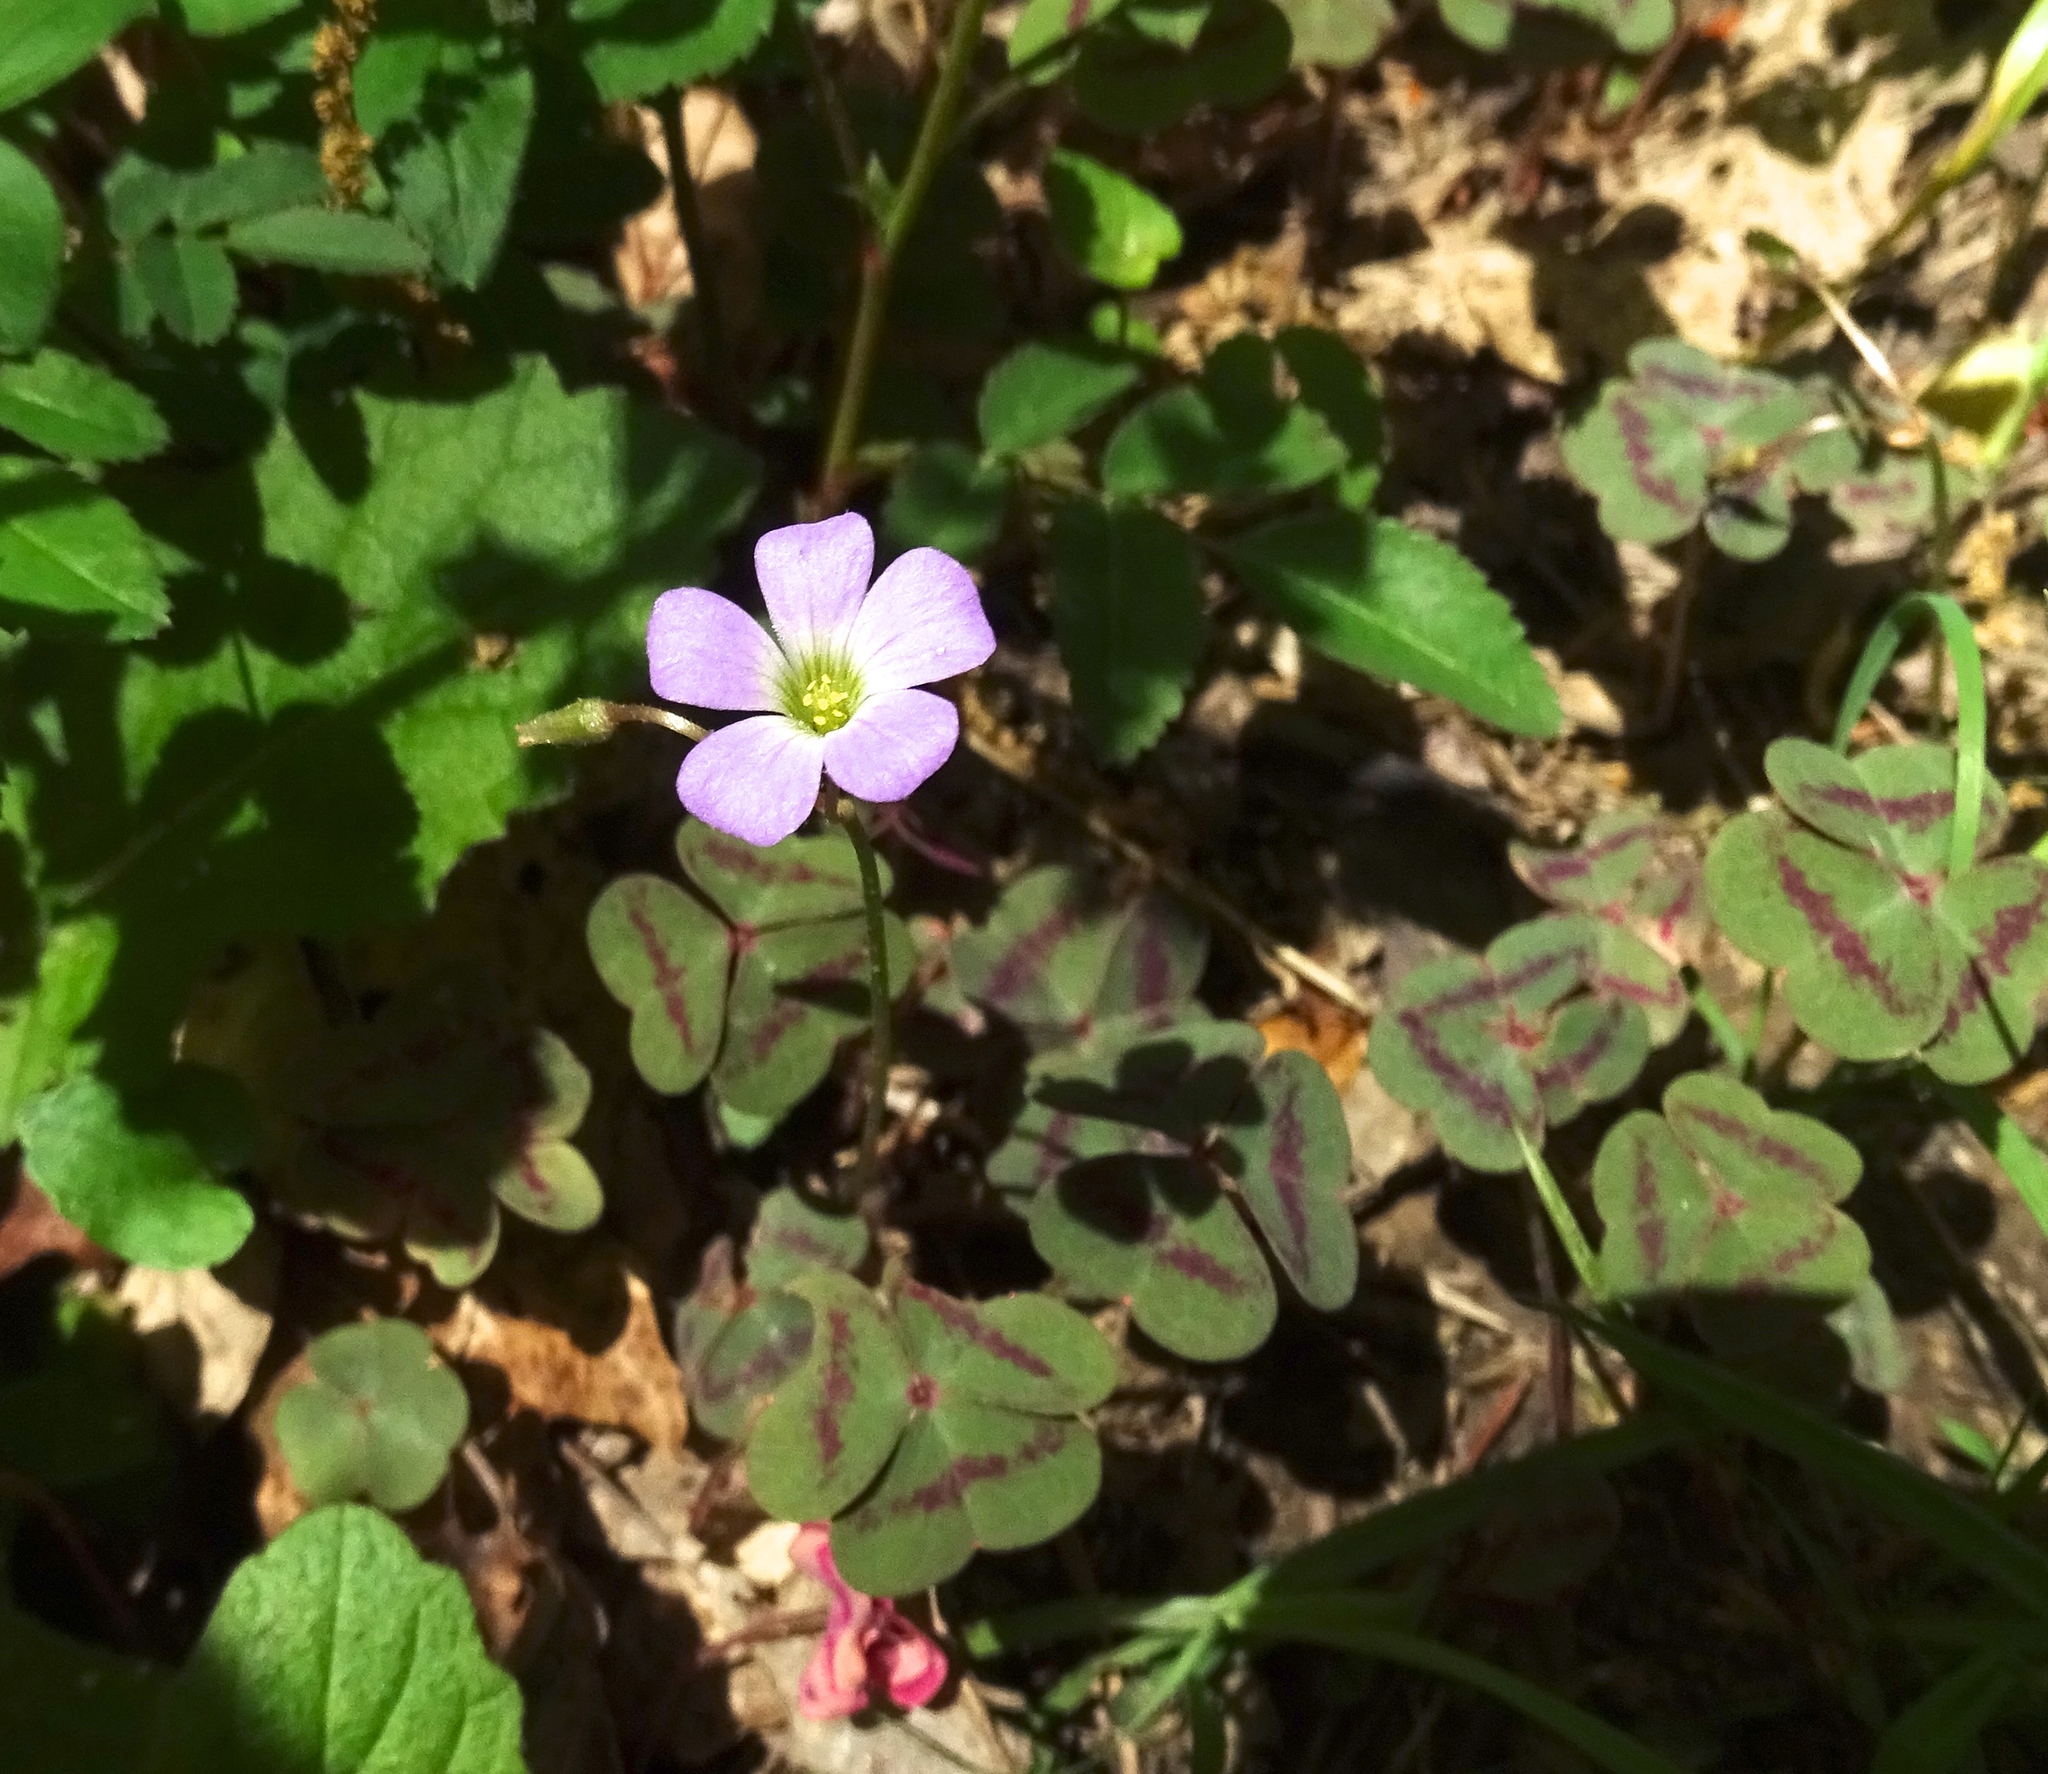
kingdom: Plantae
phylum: Tracheophyta
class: Magnoliopsida
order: Oxalidales
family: Oxalidaceae
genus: Oxalis
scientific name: Oxalis violacea
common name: Violet wood-sorrel
